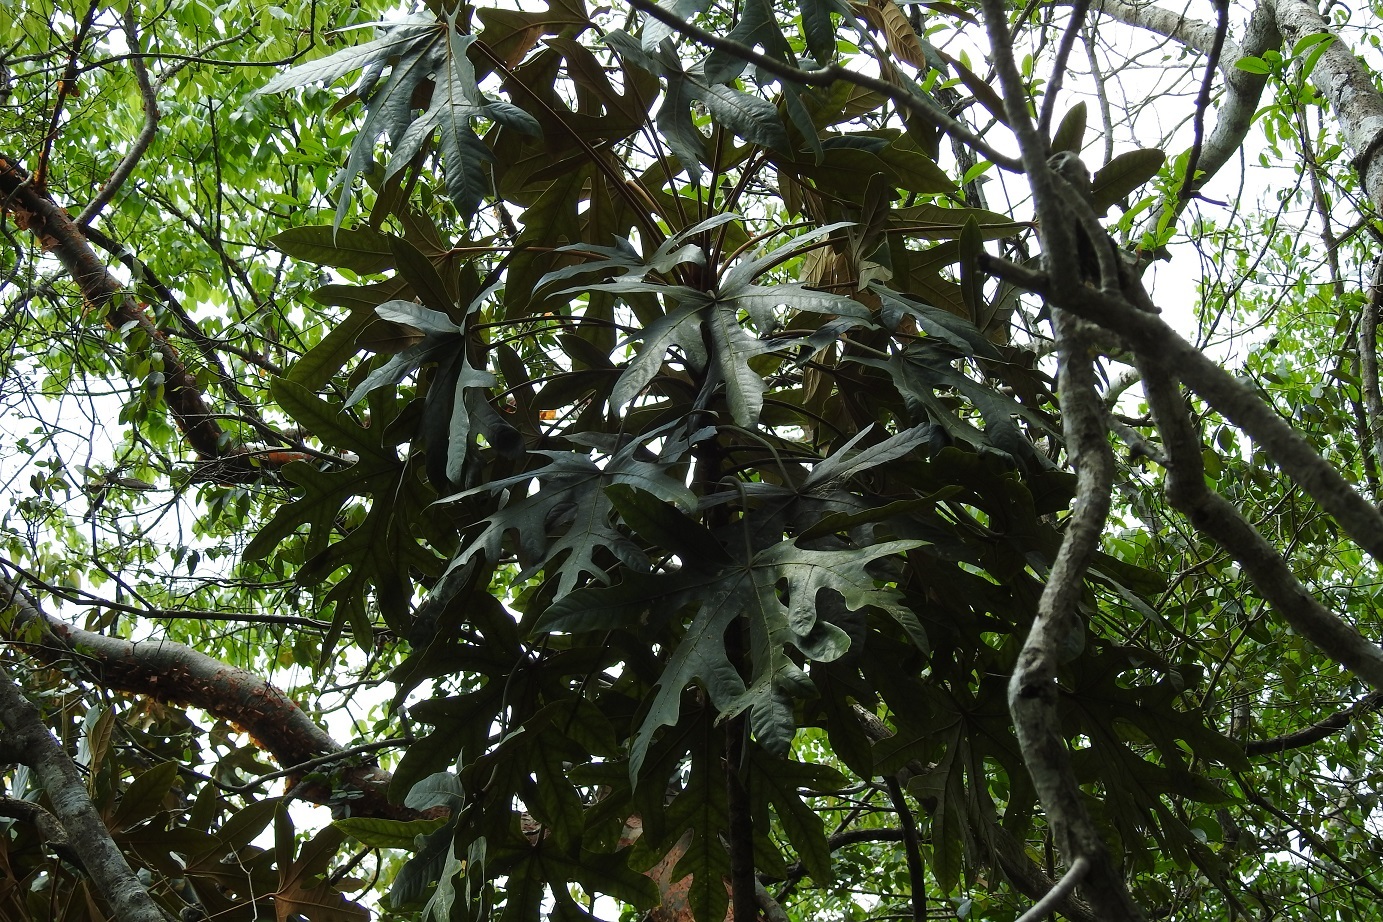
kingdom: Plantae
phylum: Tracheophyta
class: Magnoliopsida
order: Apiales
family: Araliaceae
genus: Oreopanax
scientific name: Oreopanax geminatus
